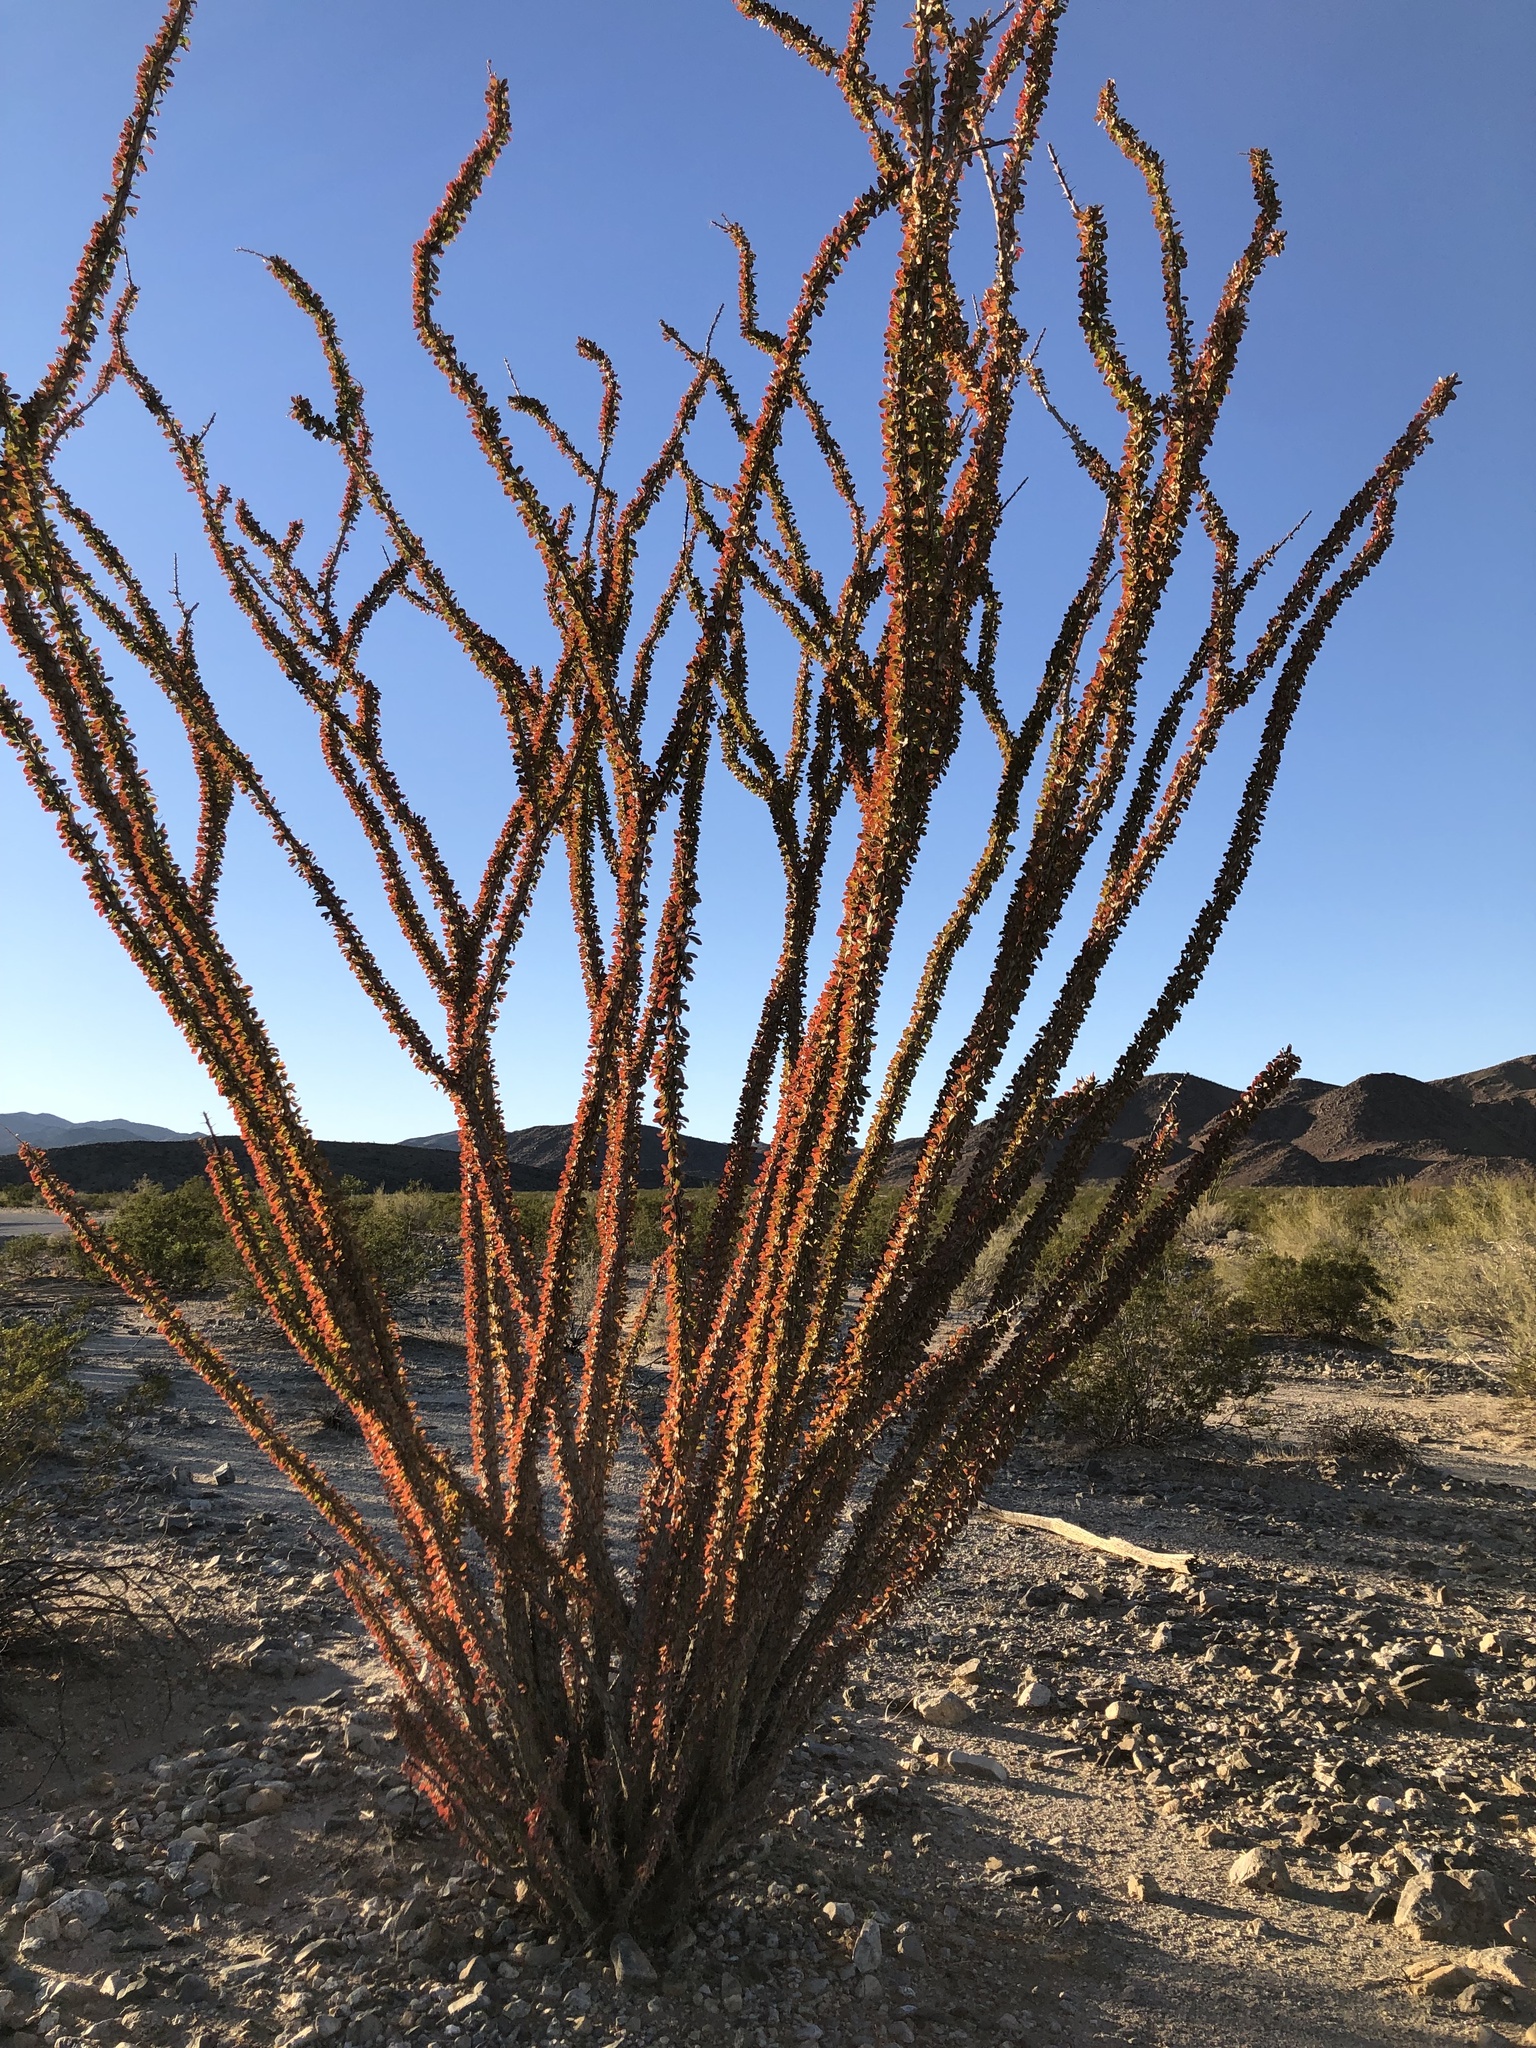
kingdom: Plantae
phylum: Tracheophyta
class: Magnoliopsida
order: Ericales
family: Fouquieriaceae
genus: Fouquieria
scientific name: Fouquieria splendens
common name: Vine-cactus
